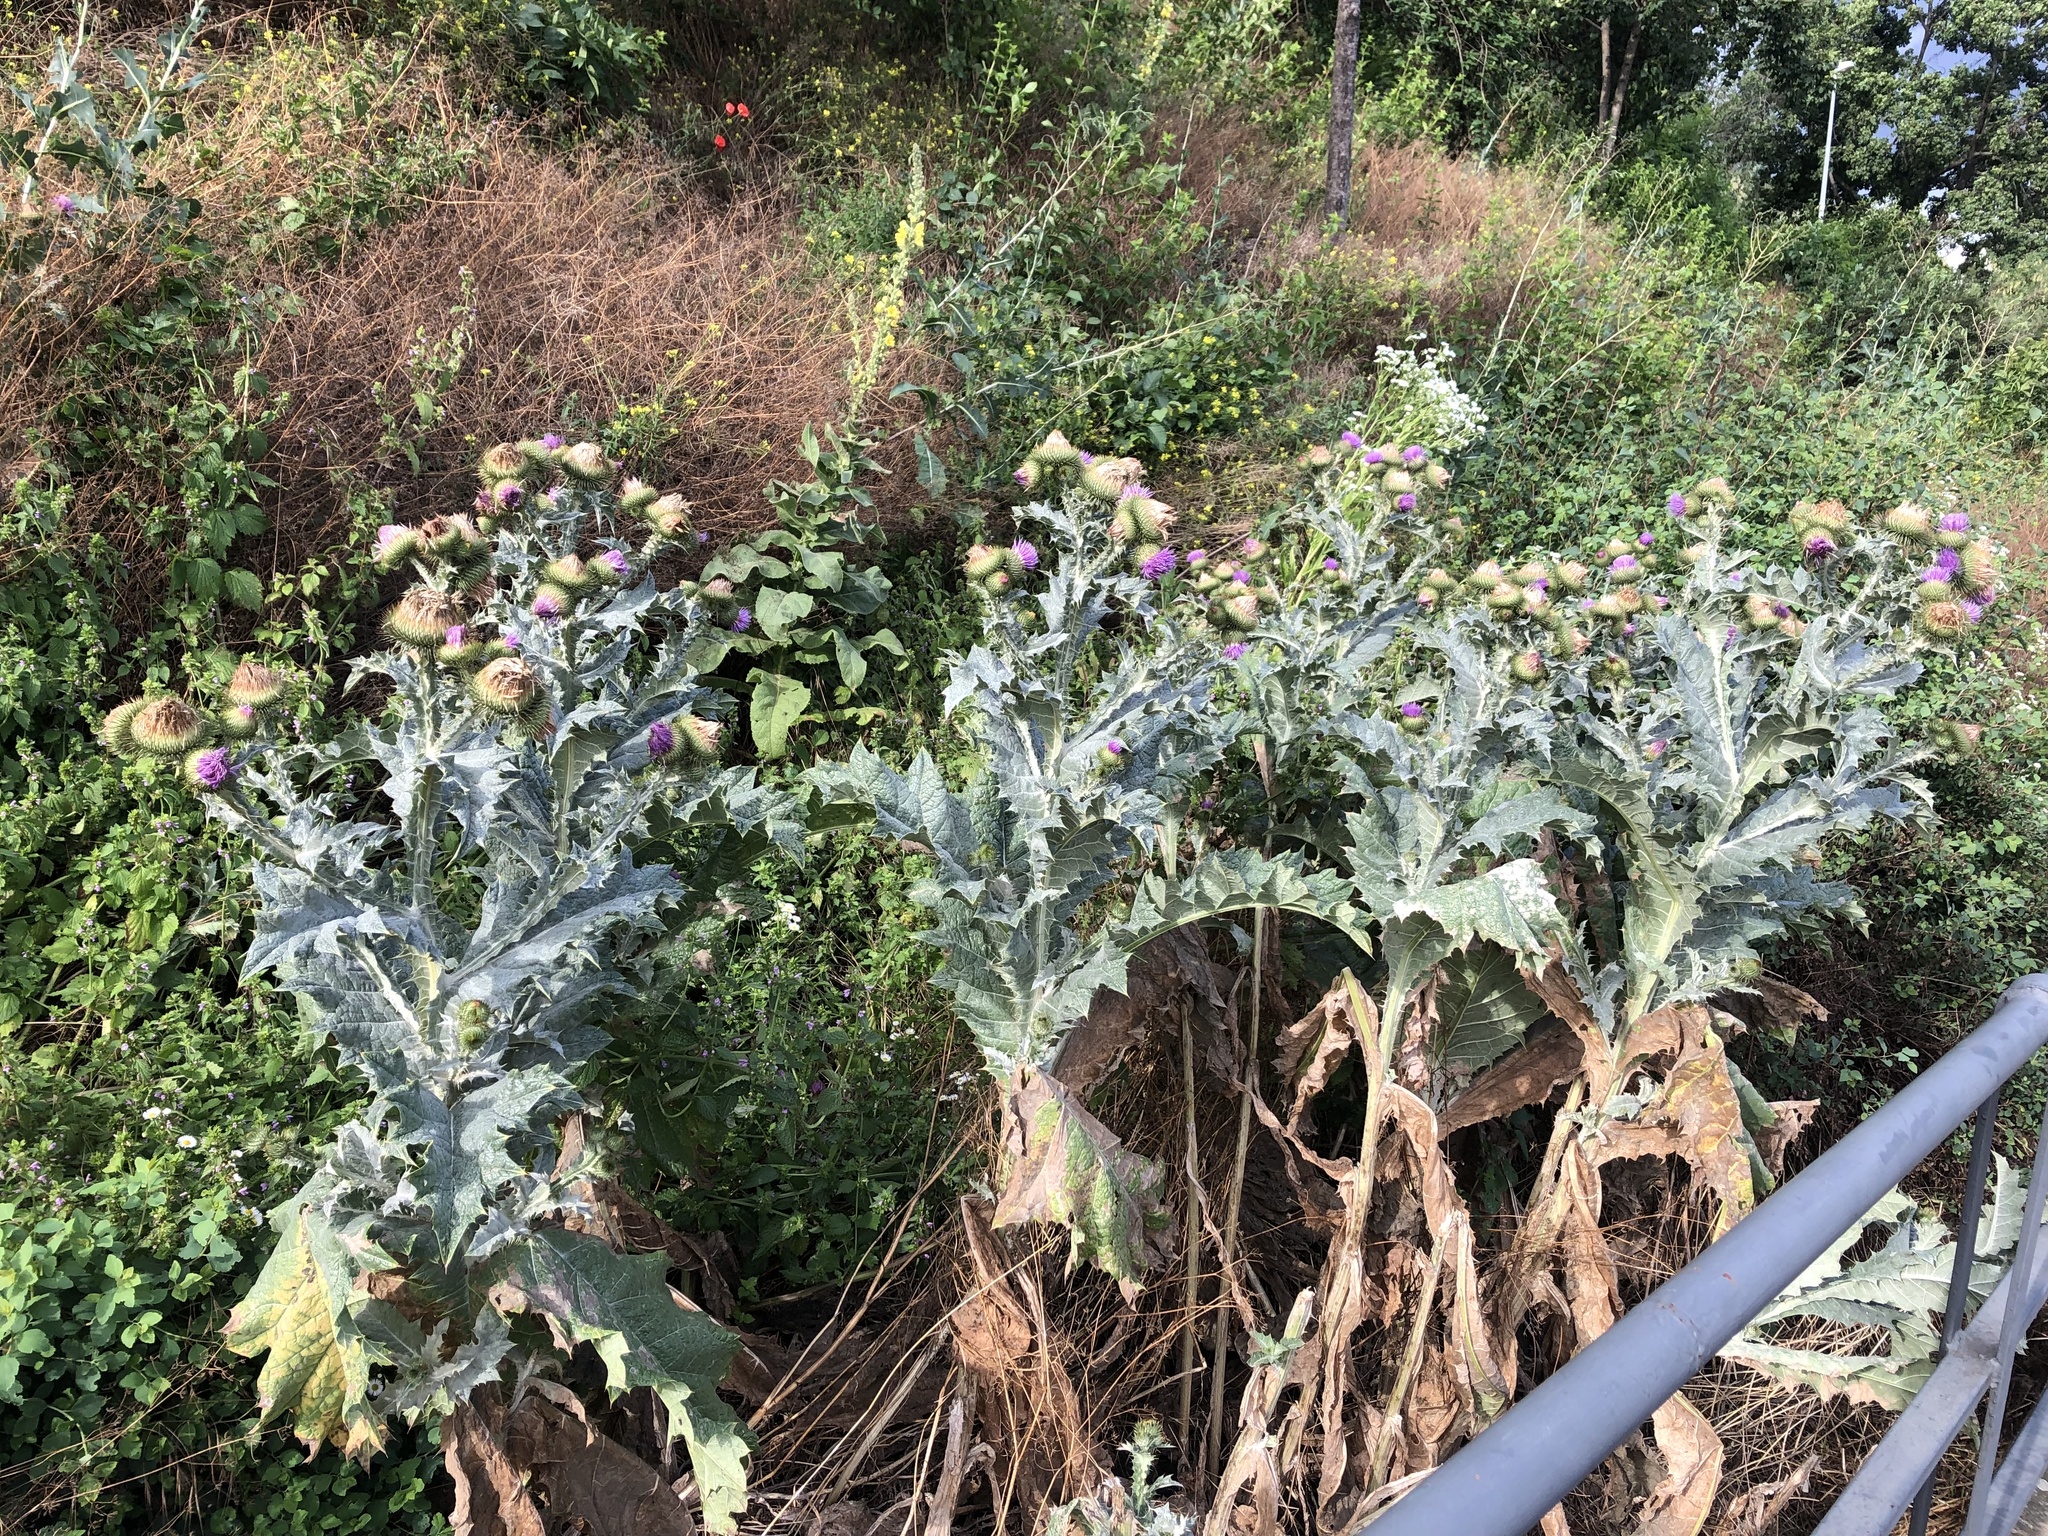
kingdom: Plantae
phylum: Tracheophyta
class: Magnoliopsida
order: Asterales
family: Asteraceae
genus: Onopordum
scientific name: Onopordum acanthium
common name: Scotch thistle
